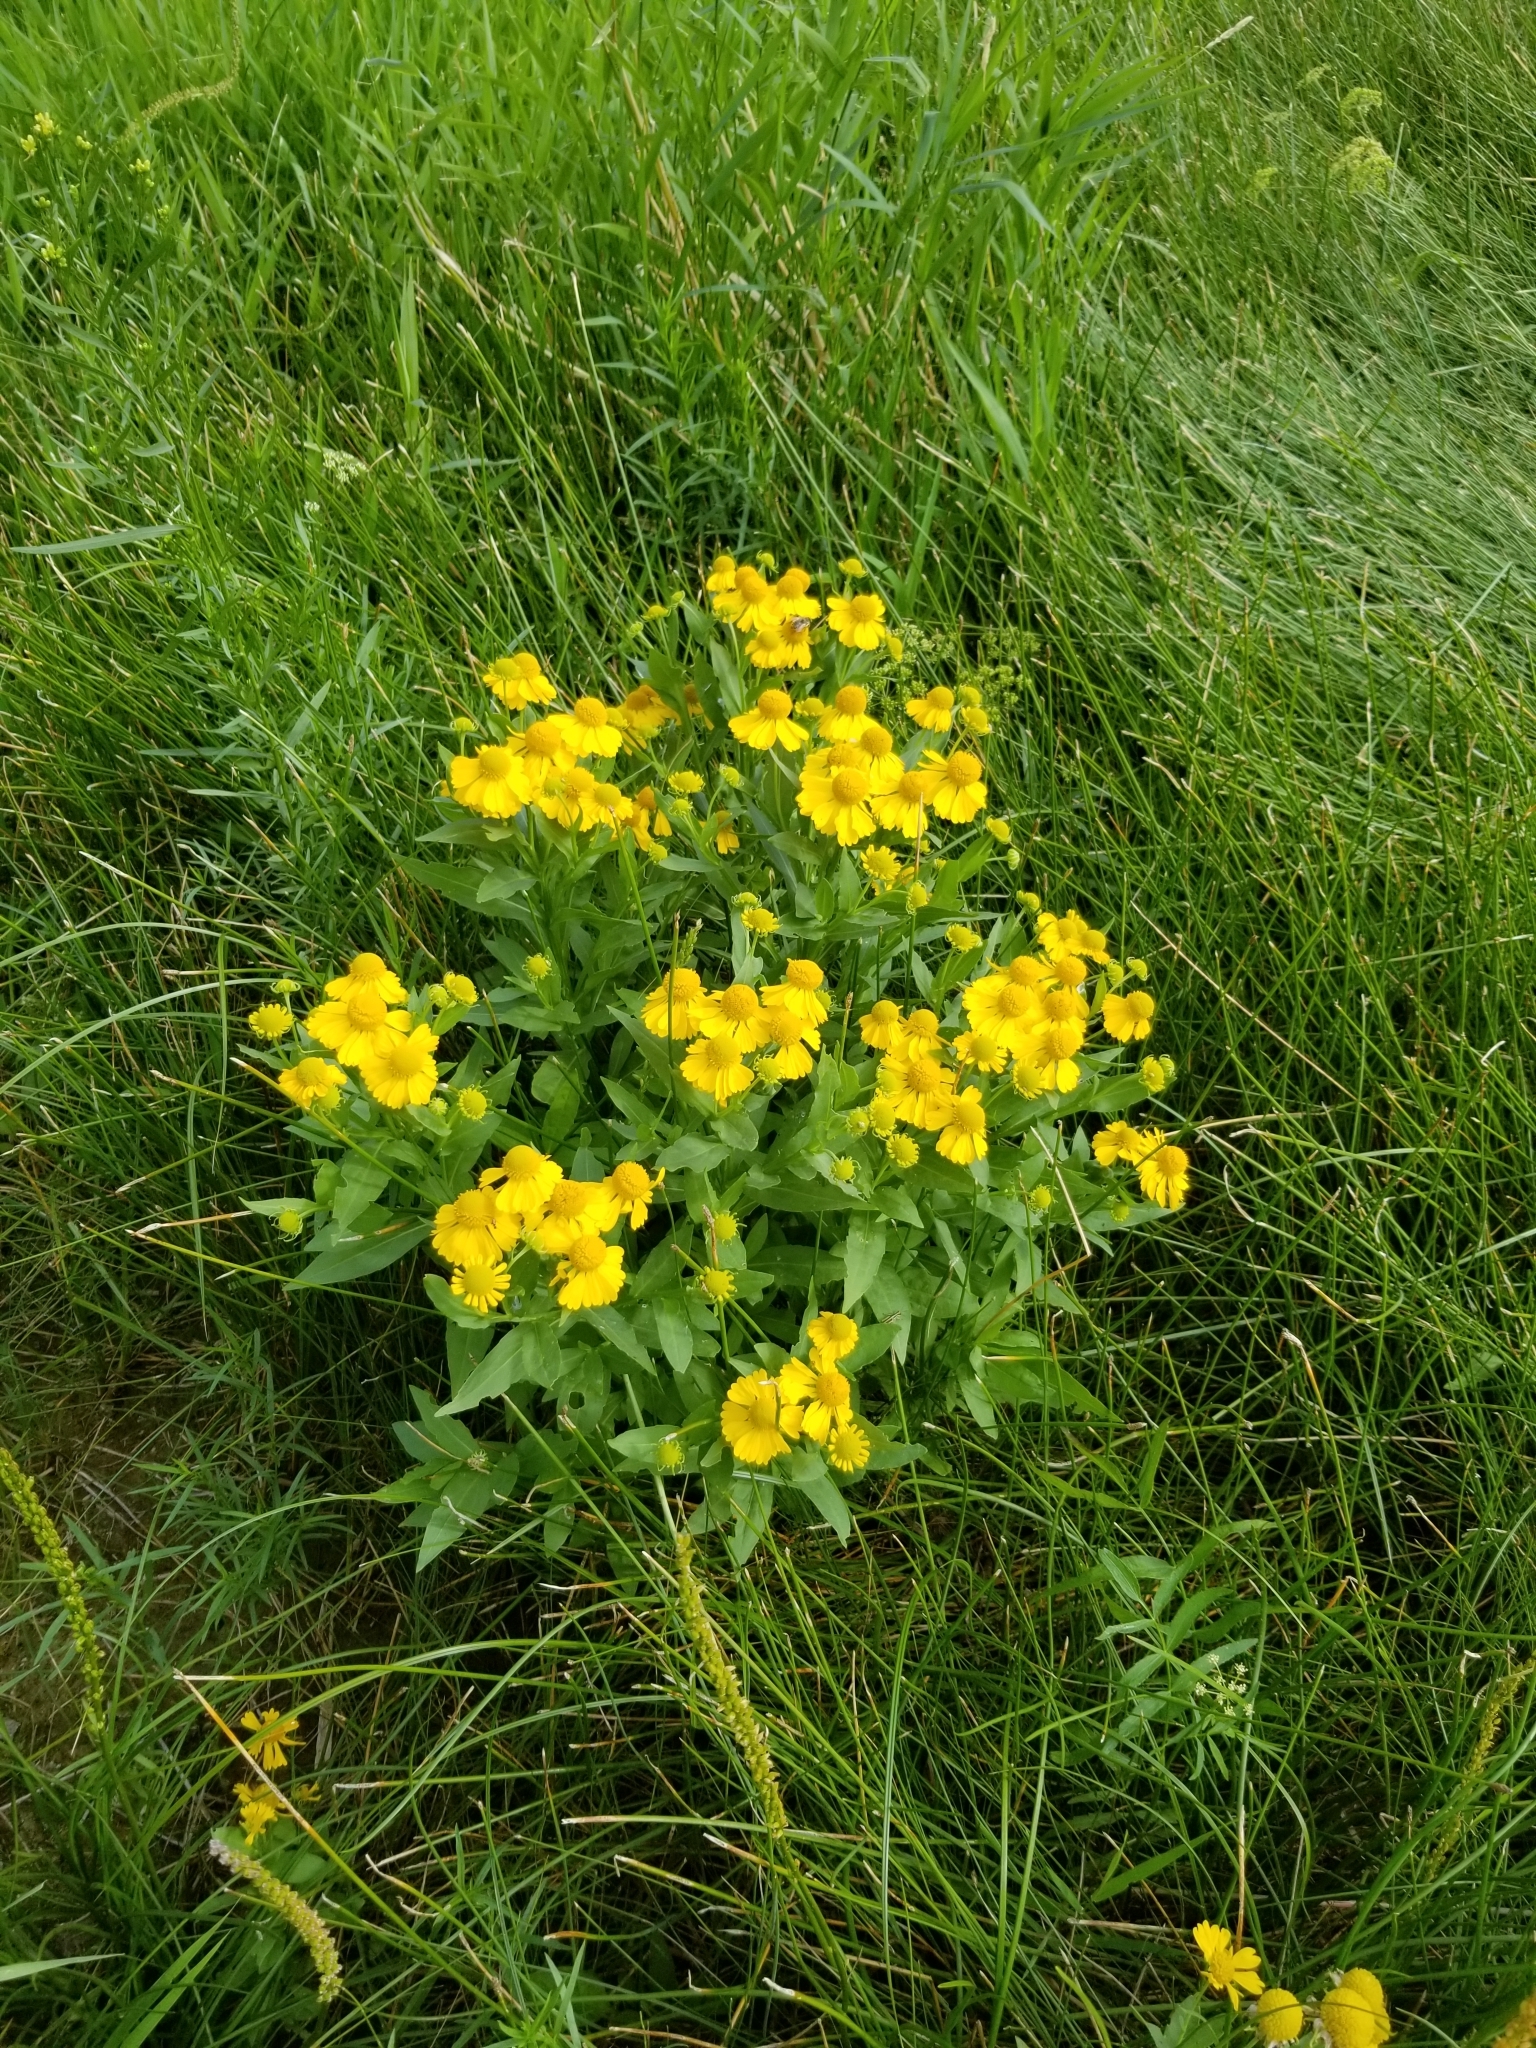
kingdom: Plantae
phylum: Tracheophyta
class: Magnoliopsida
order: Asterales
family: Asteraceae
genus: Helenium
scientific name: Helenium autumnale
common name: Sneezeweed
